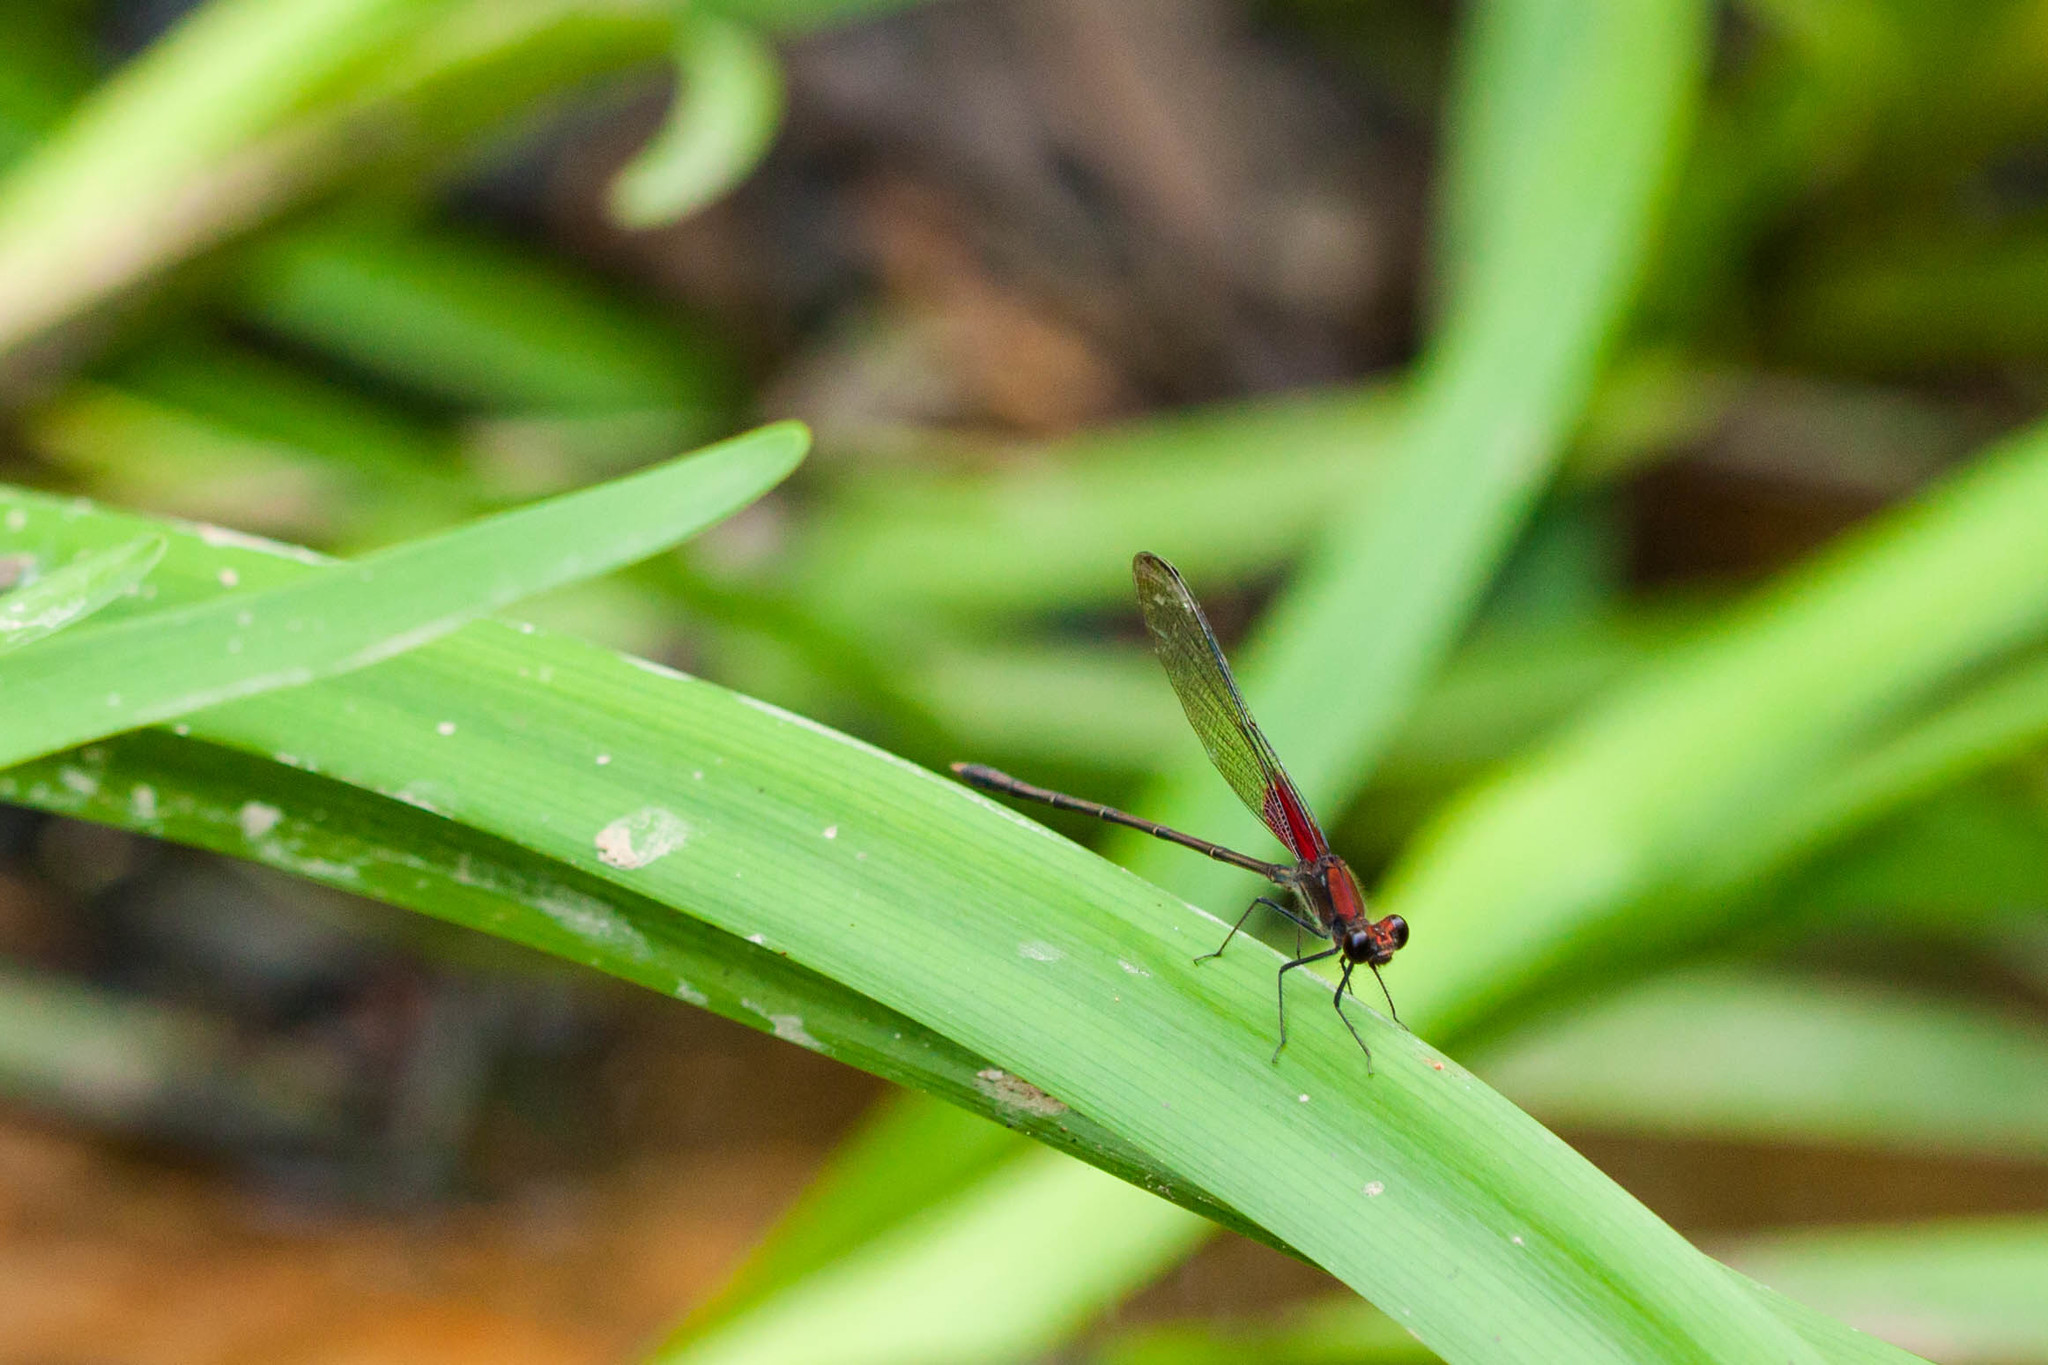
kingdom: Animalia
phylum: Arthropoda
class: Insecta
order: Odonata
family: Calopterygidae
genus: Hetaerina
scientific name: Hetaerina americana
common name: American rubyspot
